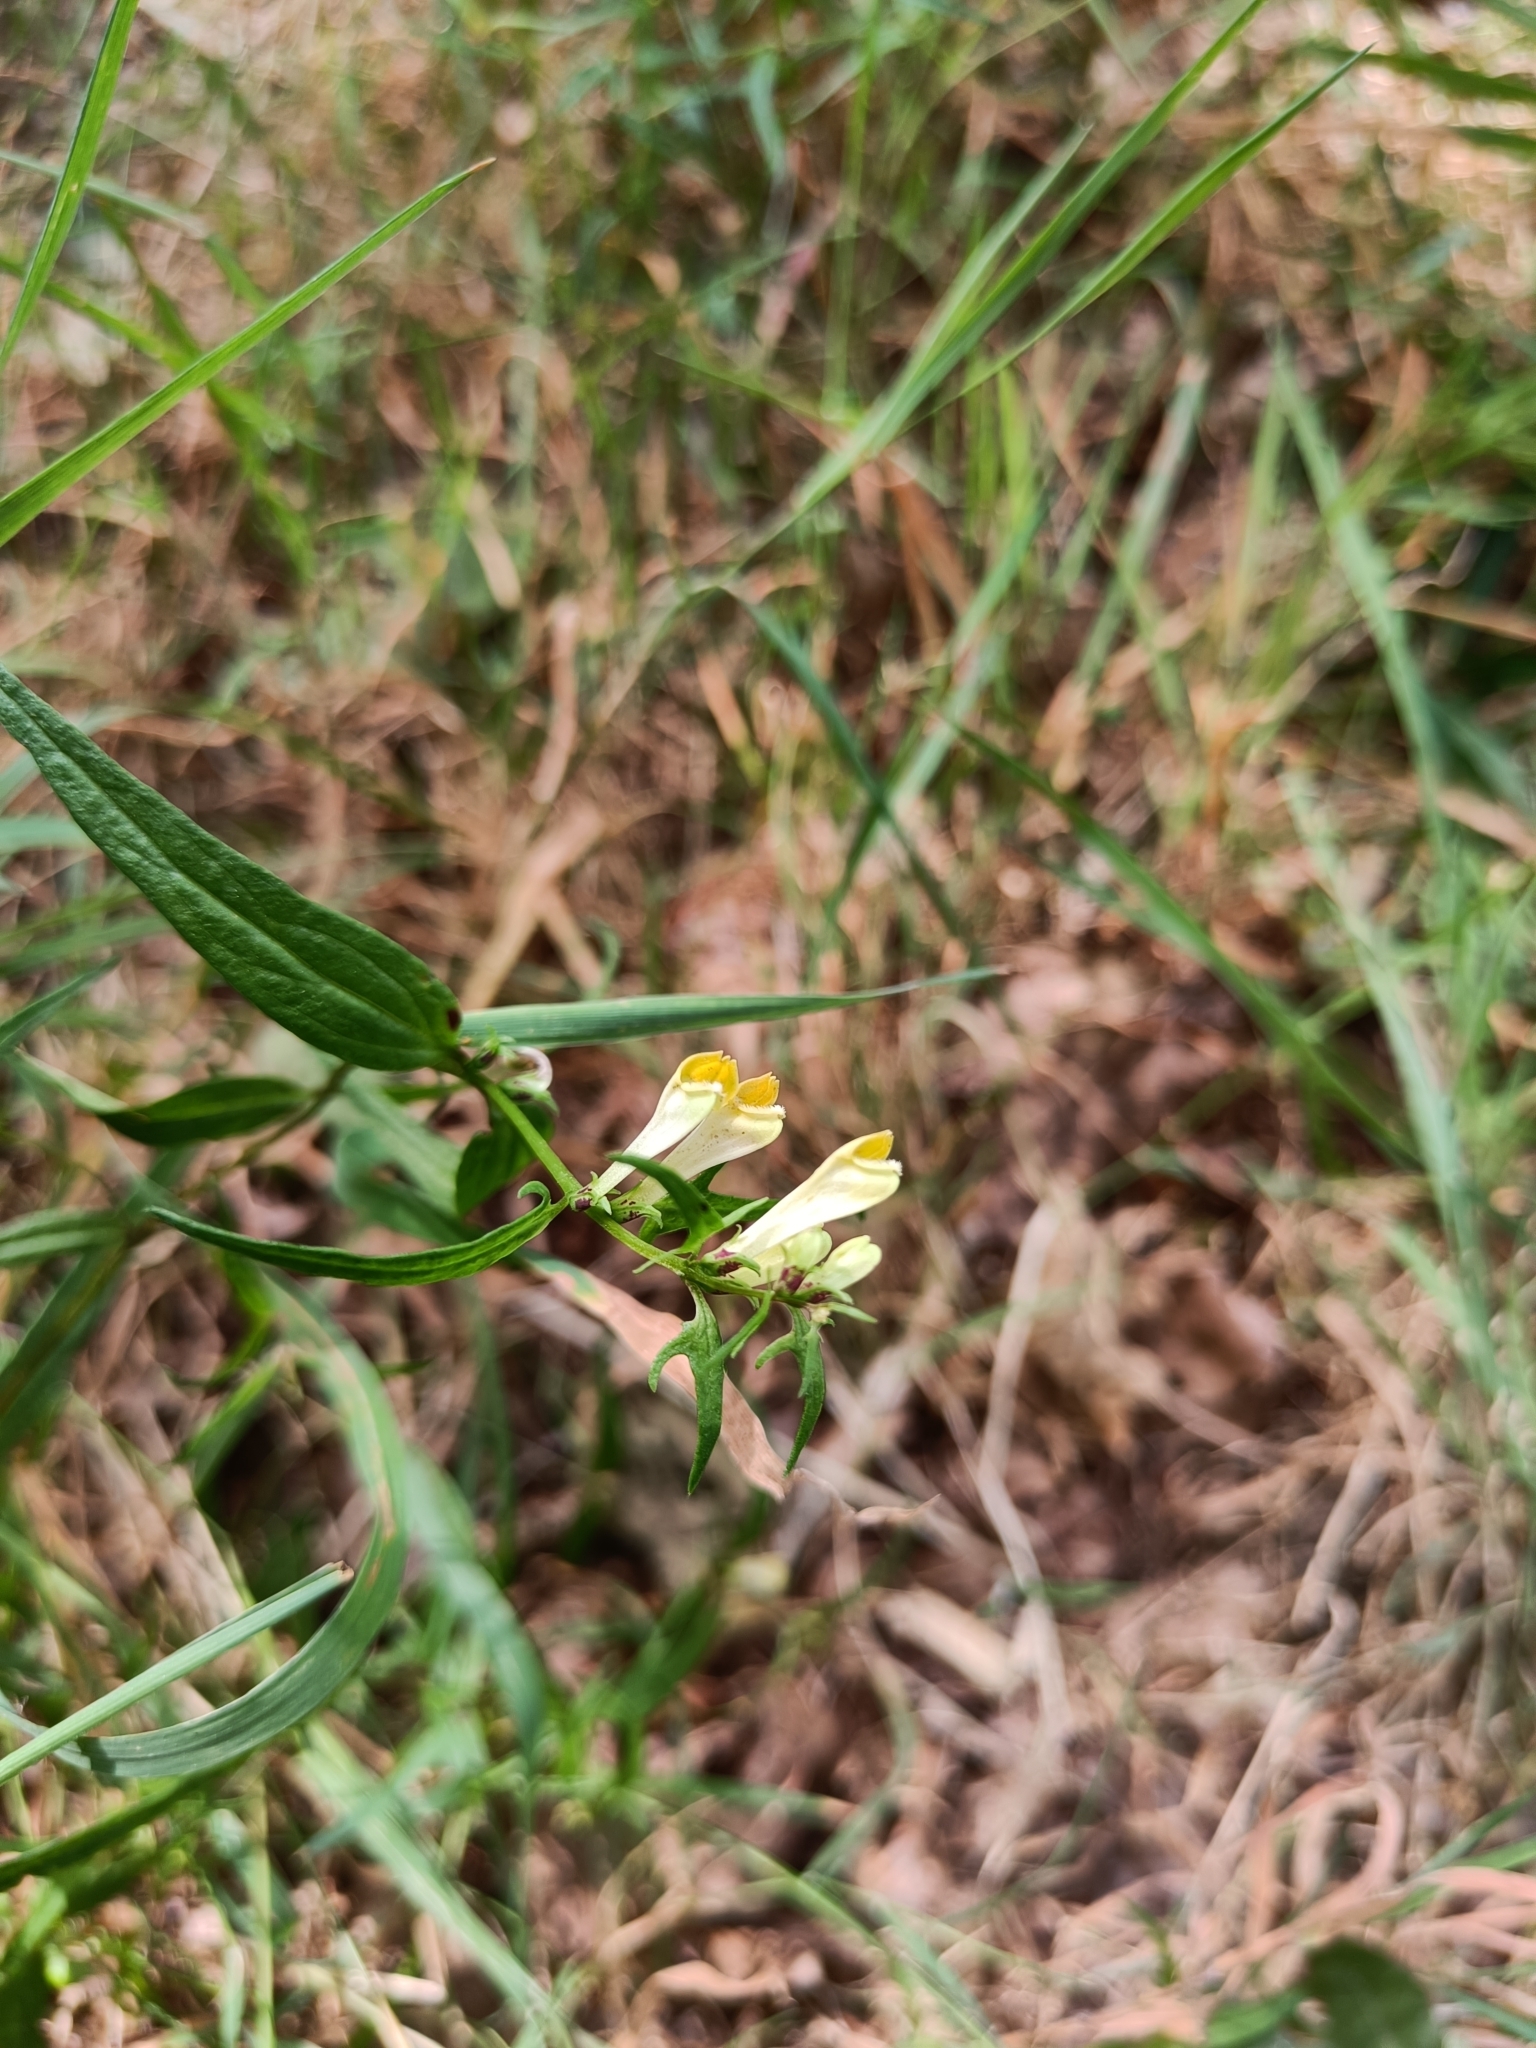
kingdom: Plantae
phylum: Tracheophyta
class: Magnoliopsida
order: Lamiales
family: Orobanchaceae
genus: Melampyrum
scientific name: Melampyrum pratense
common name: Common cow-wheat
